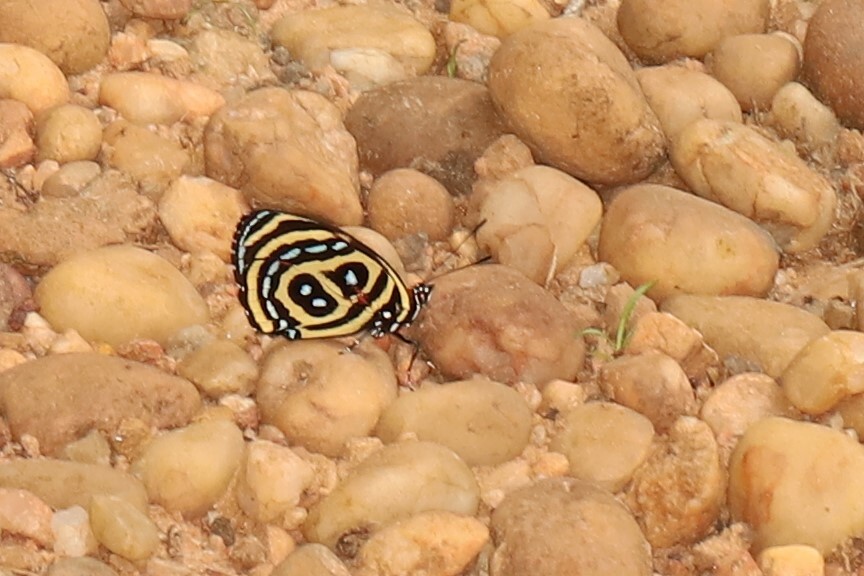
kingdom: Animalia
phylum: Arthropoda
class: Insecta
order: Lepidoptera
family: Nymphalidae
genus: Catagramma
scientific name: Catagramma astarte
